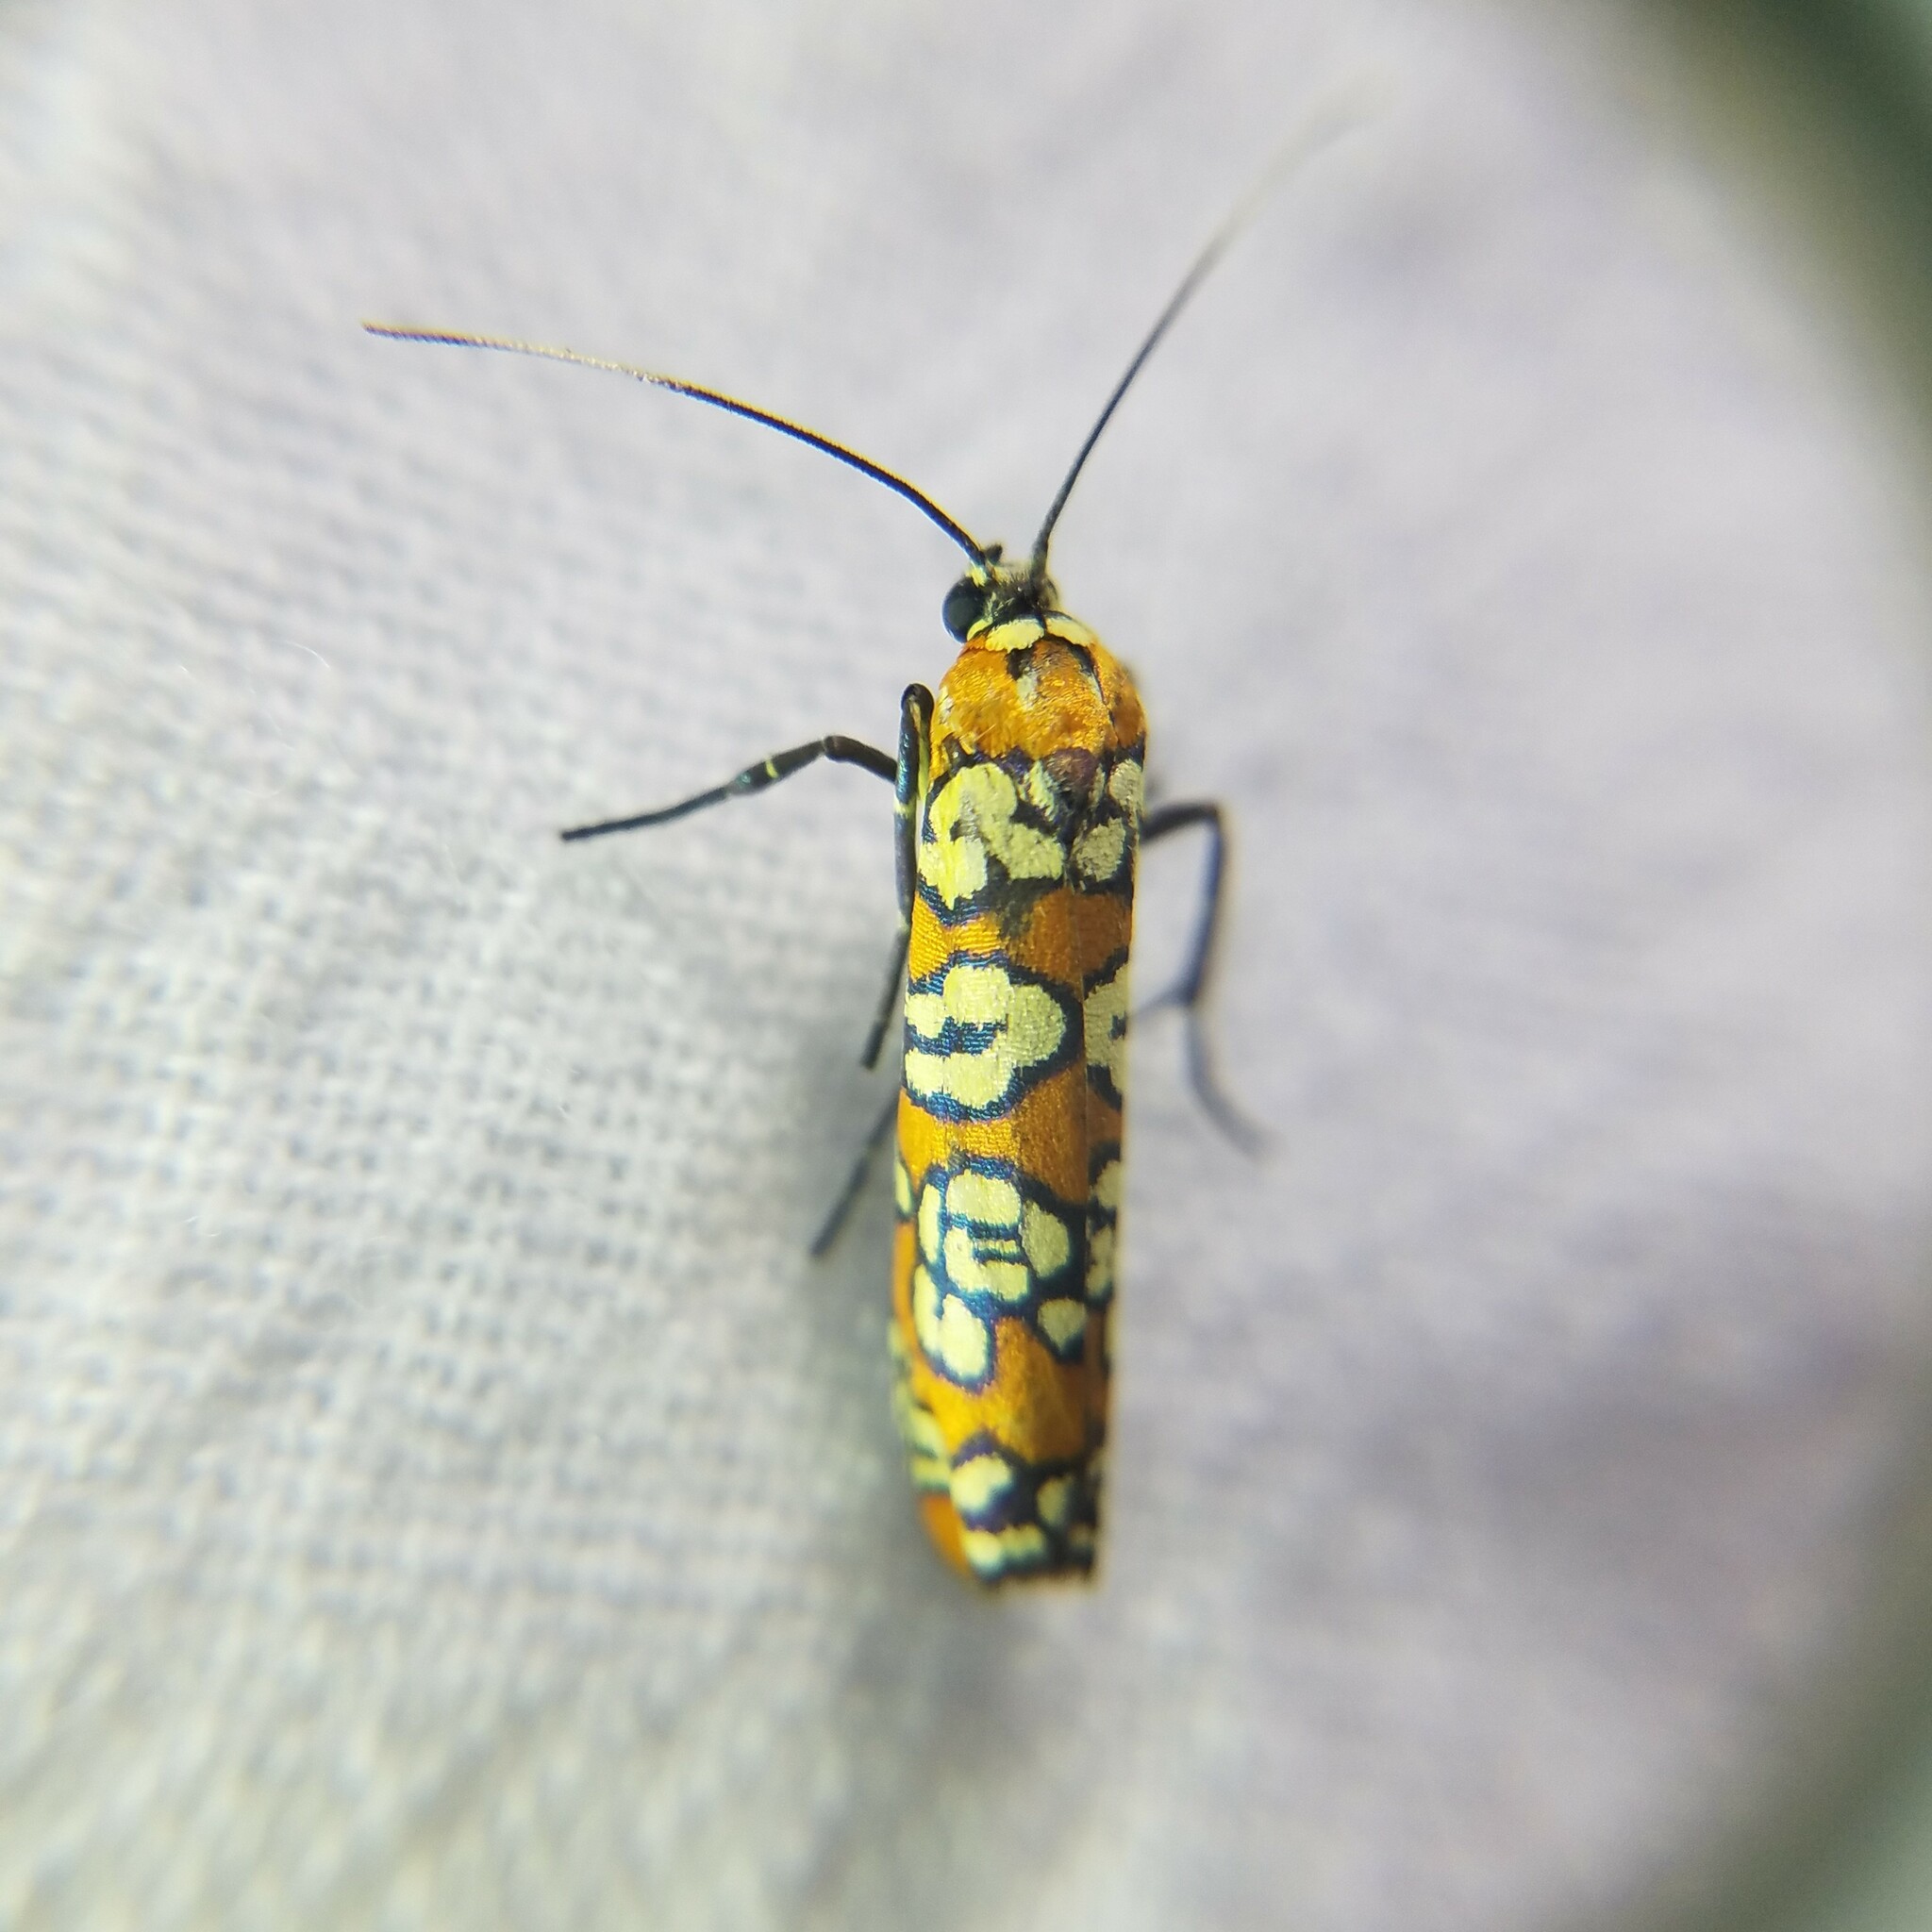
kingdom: Animalia
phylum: Arthropoda
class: Insecta
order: Lepidoptera
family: Attevidae
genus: Atteva
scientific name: Atteva punctella
